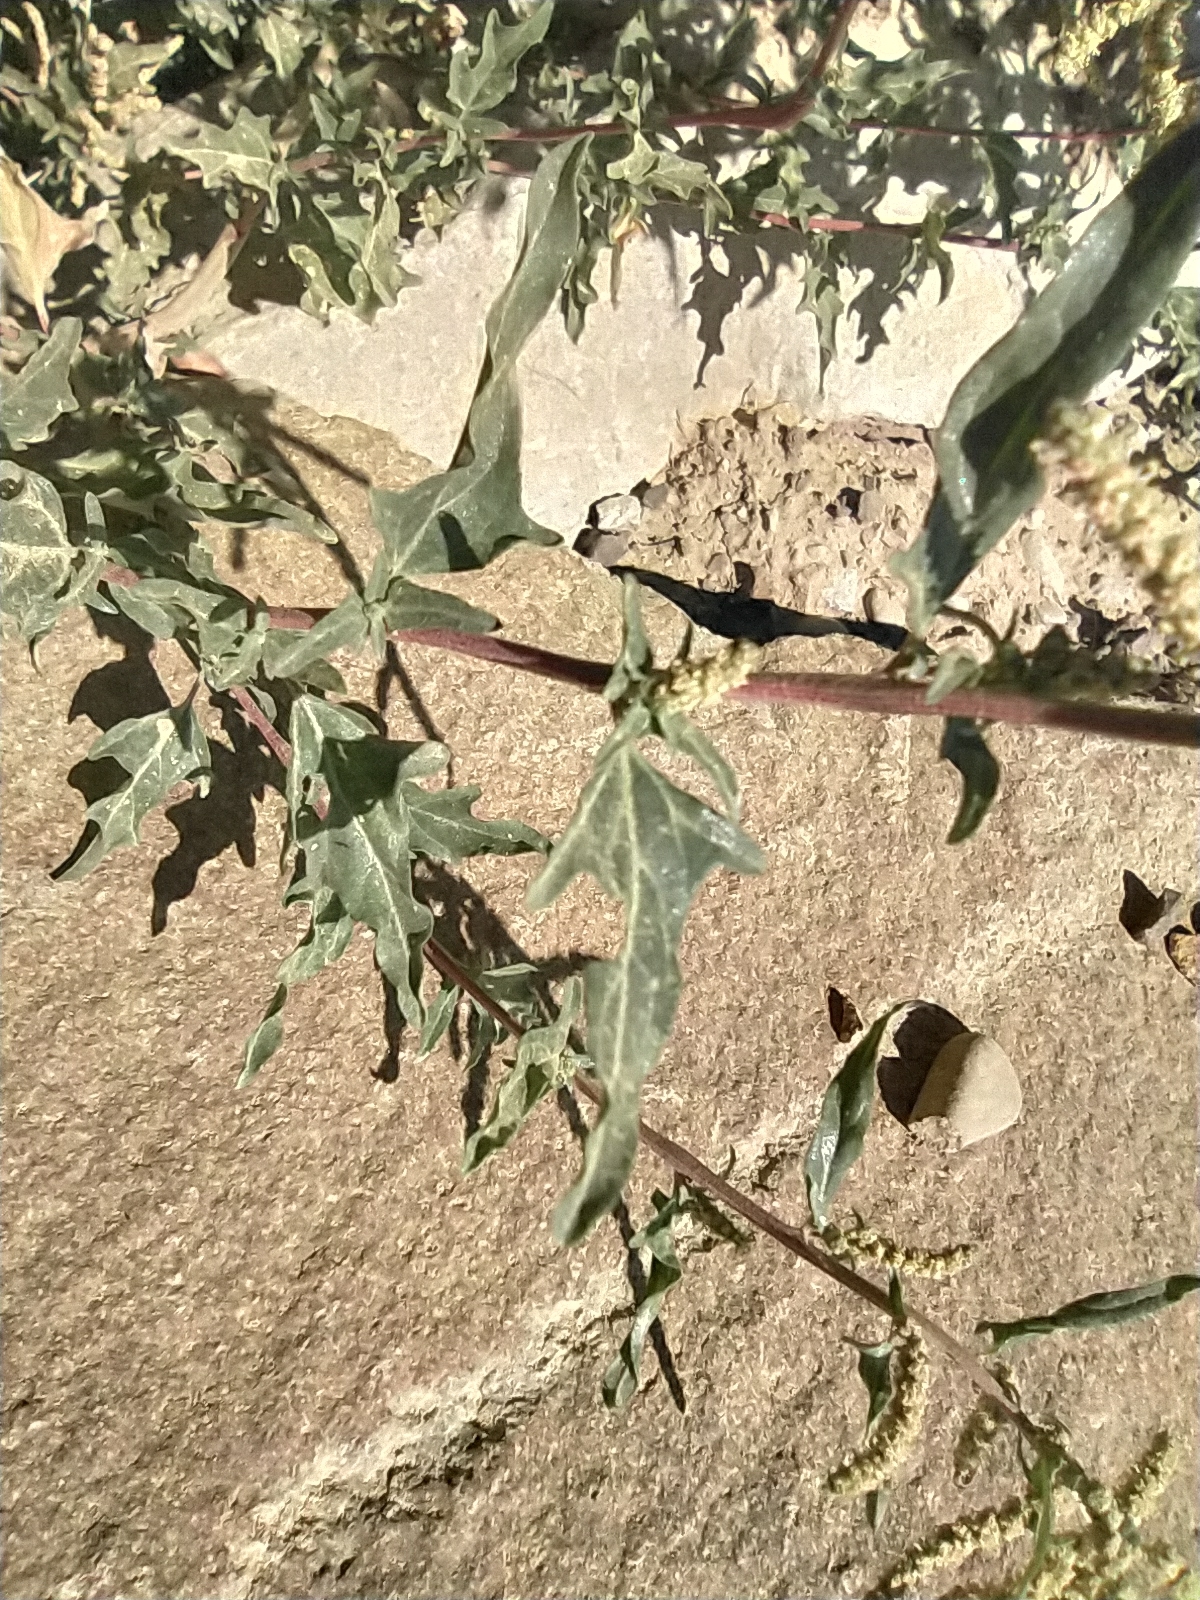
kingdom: Plantae
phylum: Tracheophyta
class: Magnoliopsida
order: Caryophyllales
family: Amaranthaceae
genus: Atriplex
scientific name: Atriplex tatarica
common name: Tatarian orache
